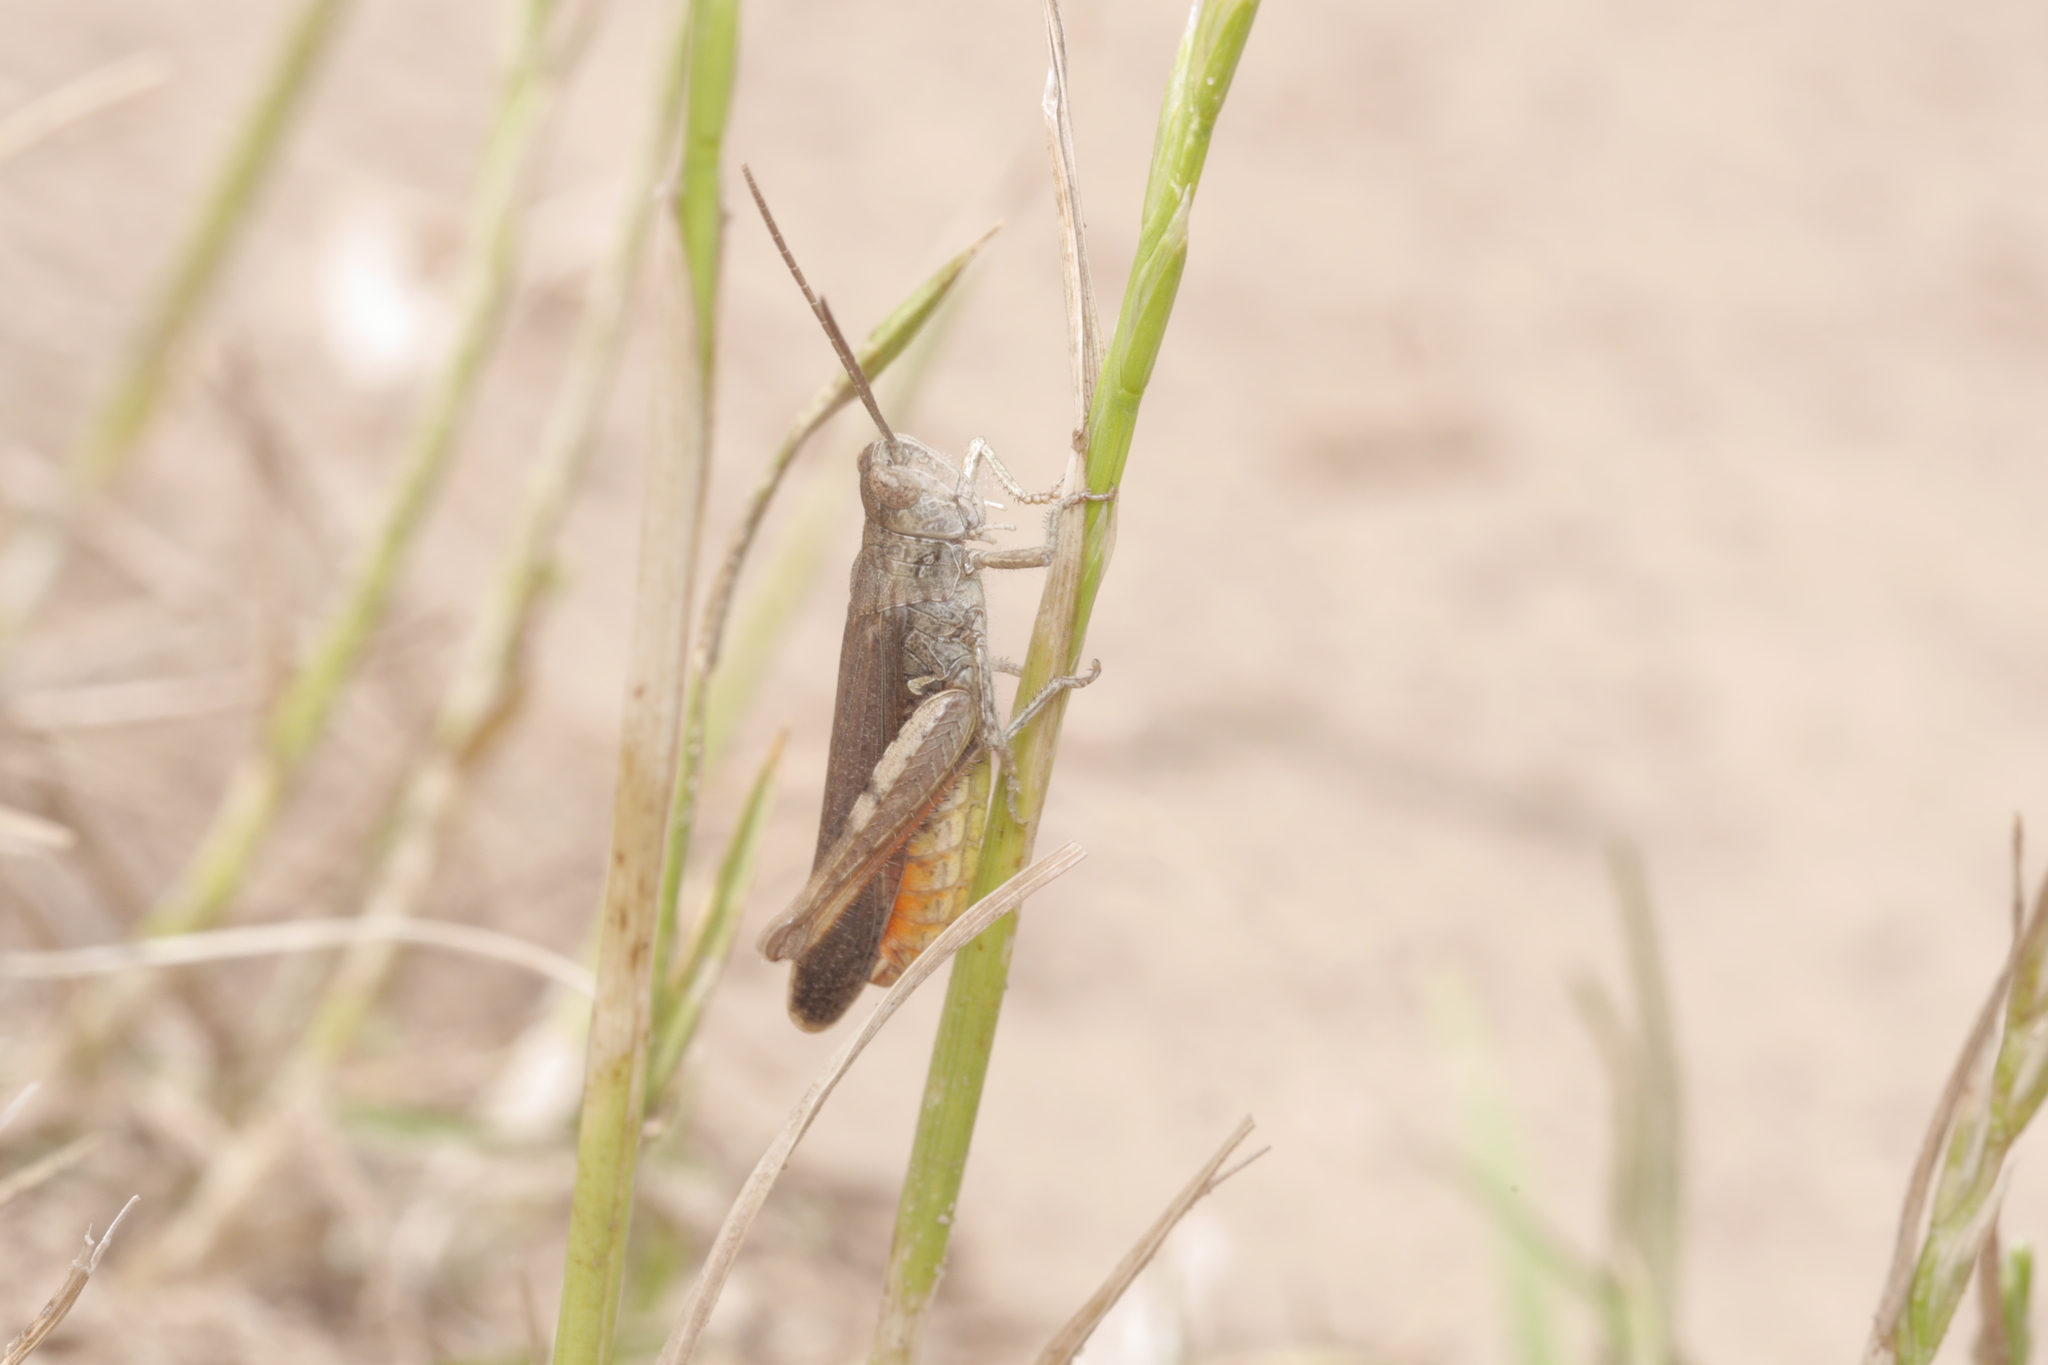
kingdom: Animalia
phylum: Arthropoda
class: Insecta
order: Orthoptera
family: Acrididae
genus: Chorthippus
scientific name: Chorthippus brunneus
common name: Field grasshopper
